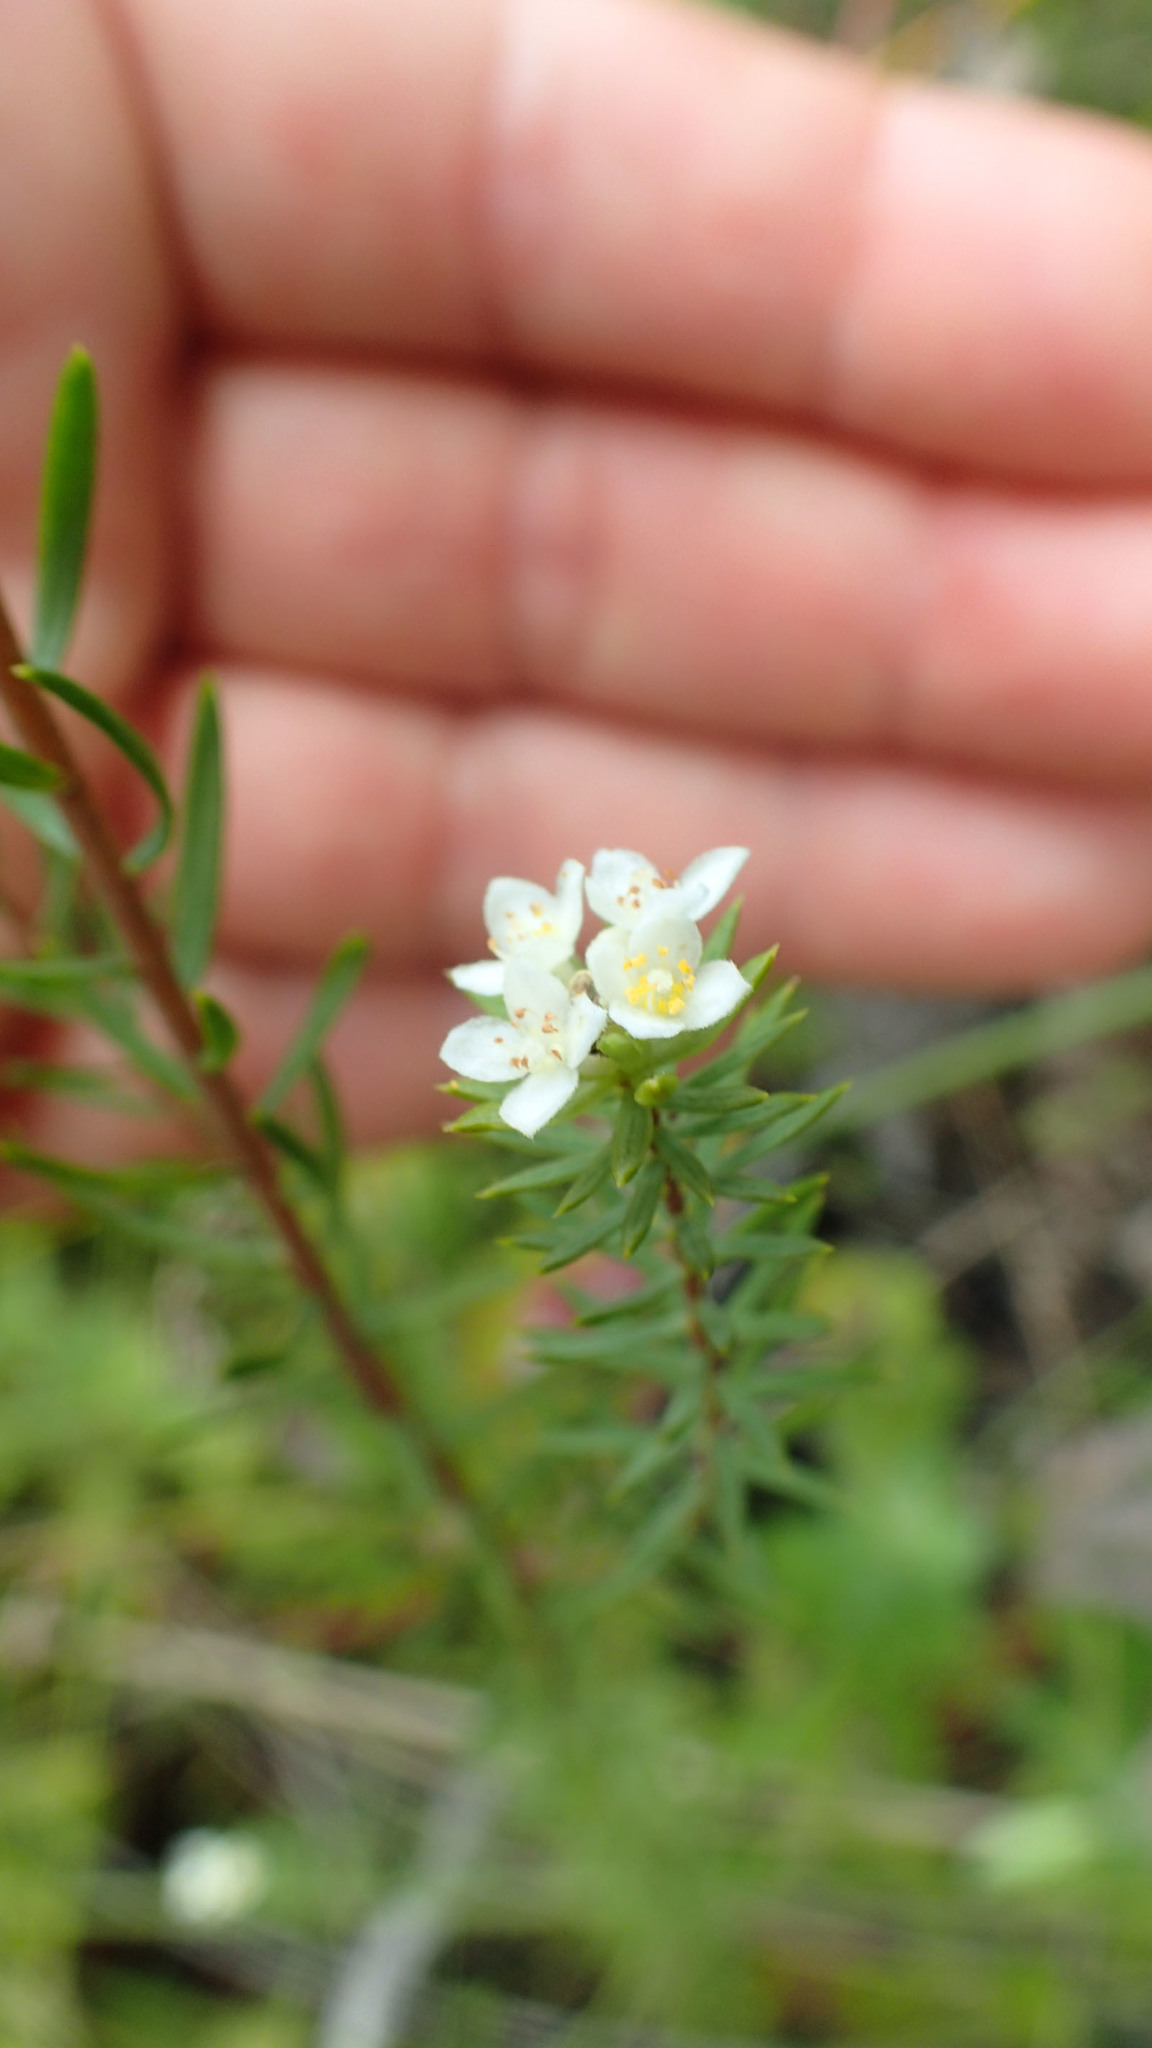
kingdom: Plantae
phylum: Tracheophyta
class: Magnoliopsida
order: Malvales
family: Thymelaeaceae
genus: Lachnaea
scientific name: Lachnaea diosmoides
